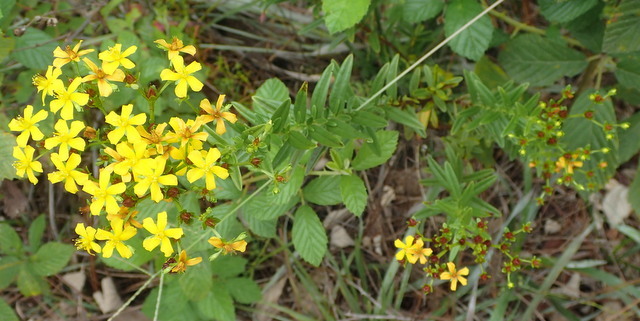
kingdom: Plantae
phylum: Tracheophyta
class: Magnoliopsida
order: Malpighiales
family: Hypericaceae
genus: Hypericum
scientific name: Hypericum cistifolium
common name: Round-pod st. john's-wort
